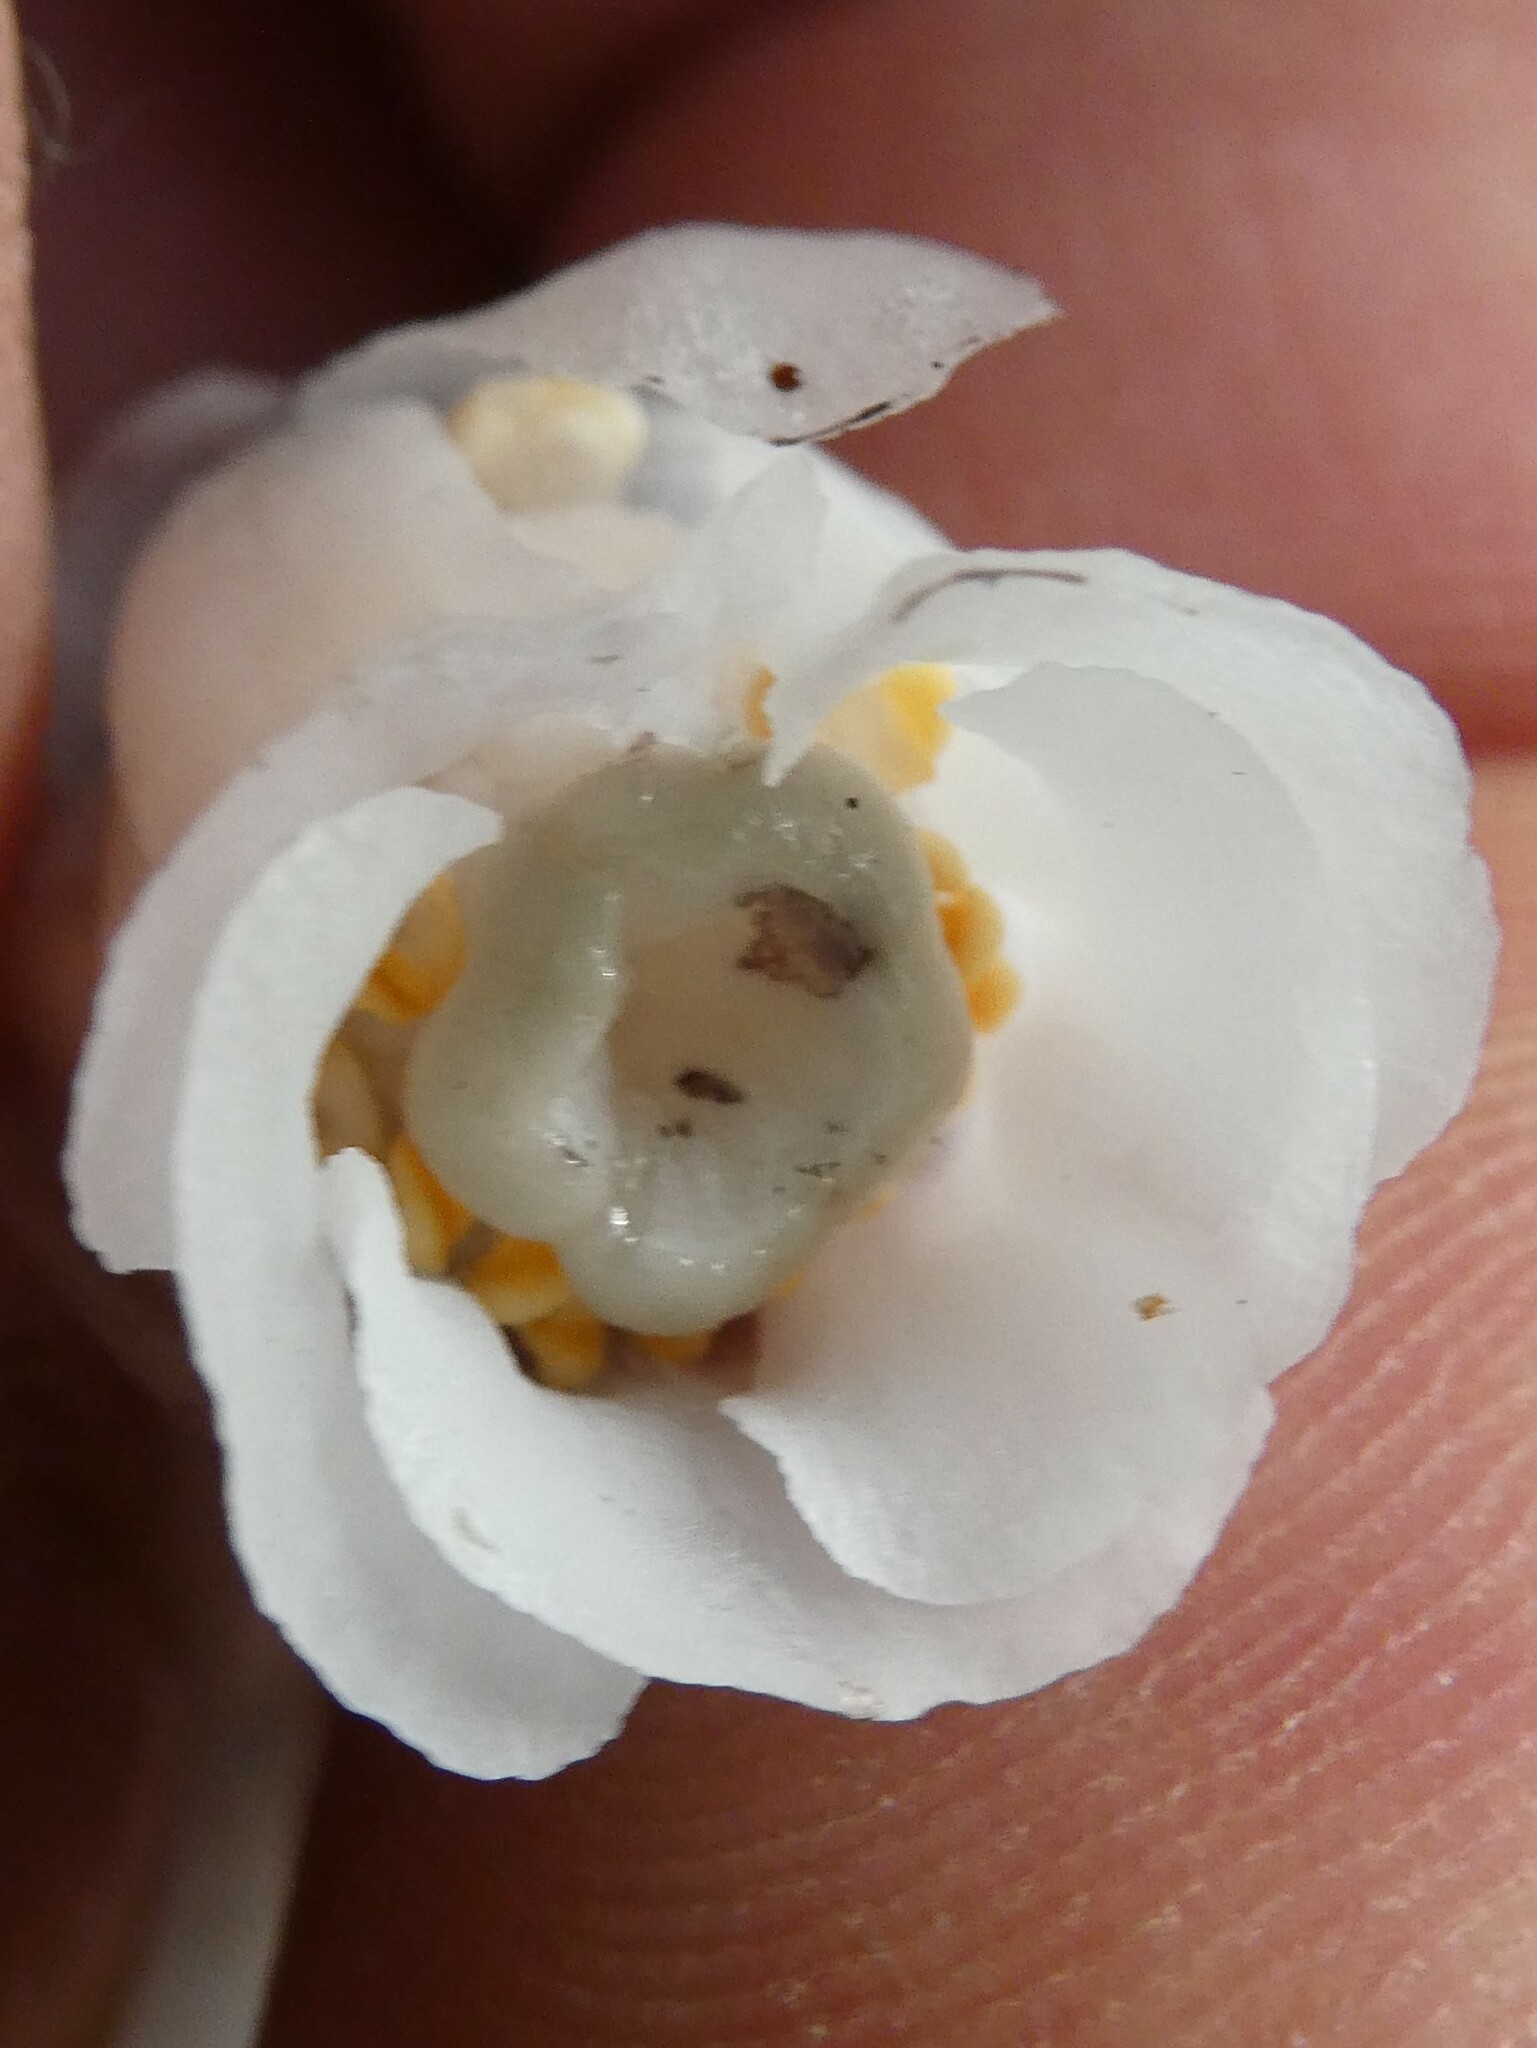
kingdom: Plantae
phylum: Tracheophyta
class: Magnoliopsida
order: Ericales
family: Ericaceae
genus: Monotropa
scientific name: Monotropa uniflora
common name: Convulsion root
